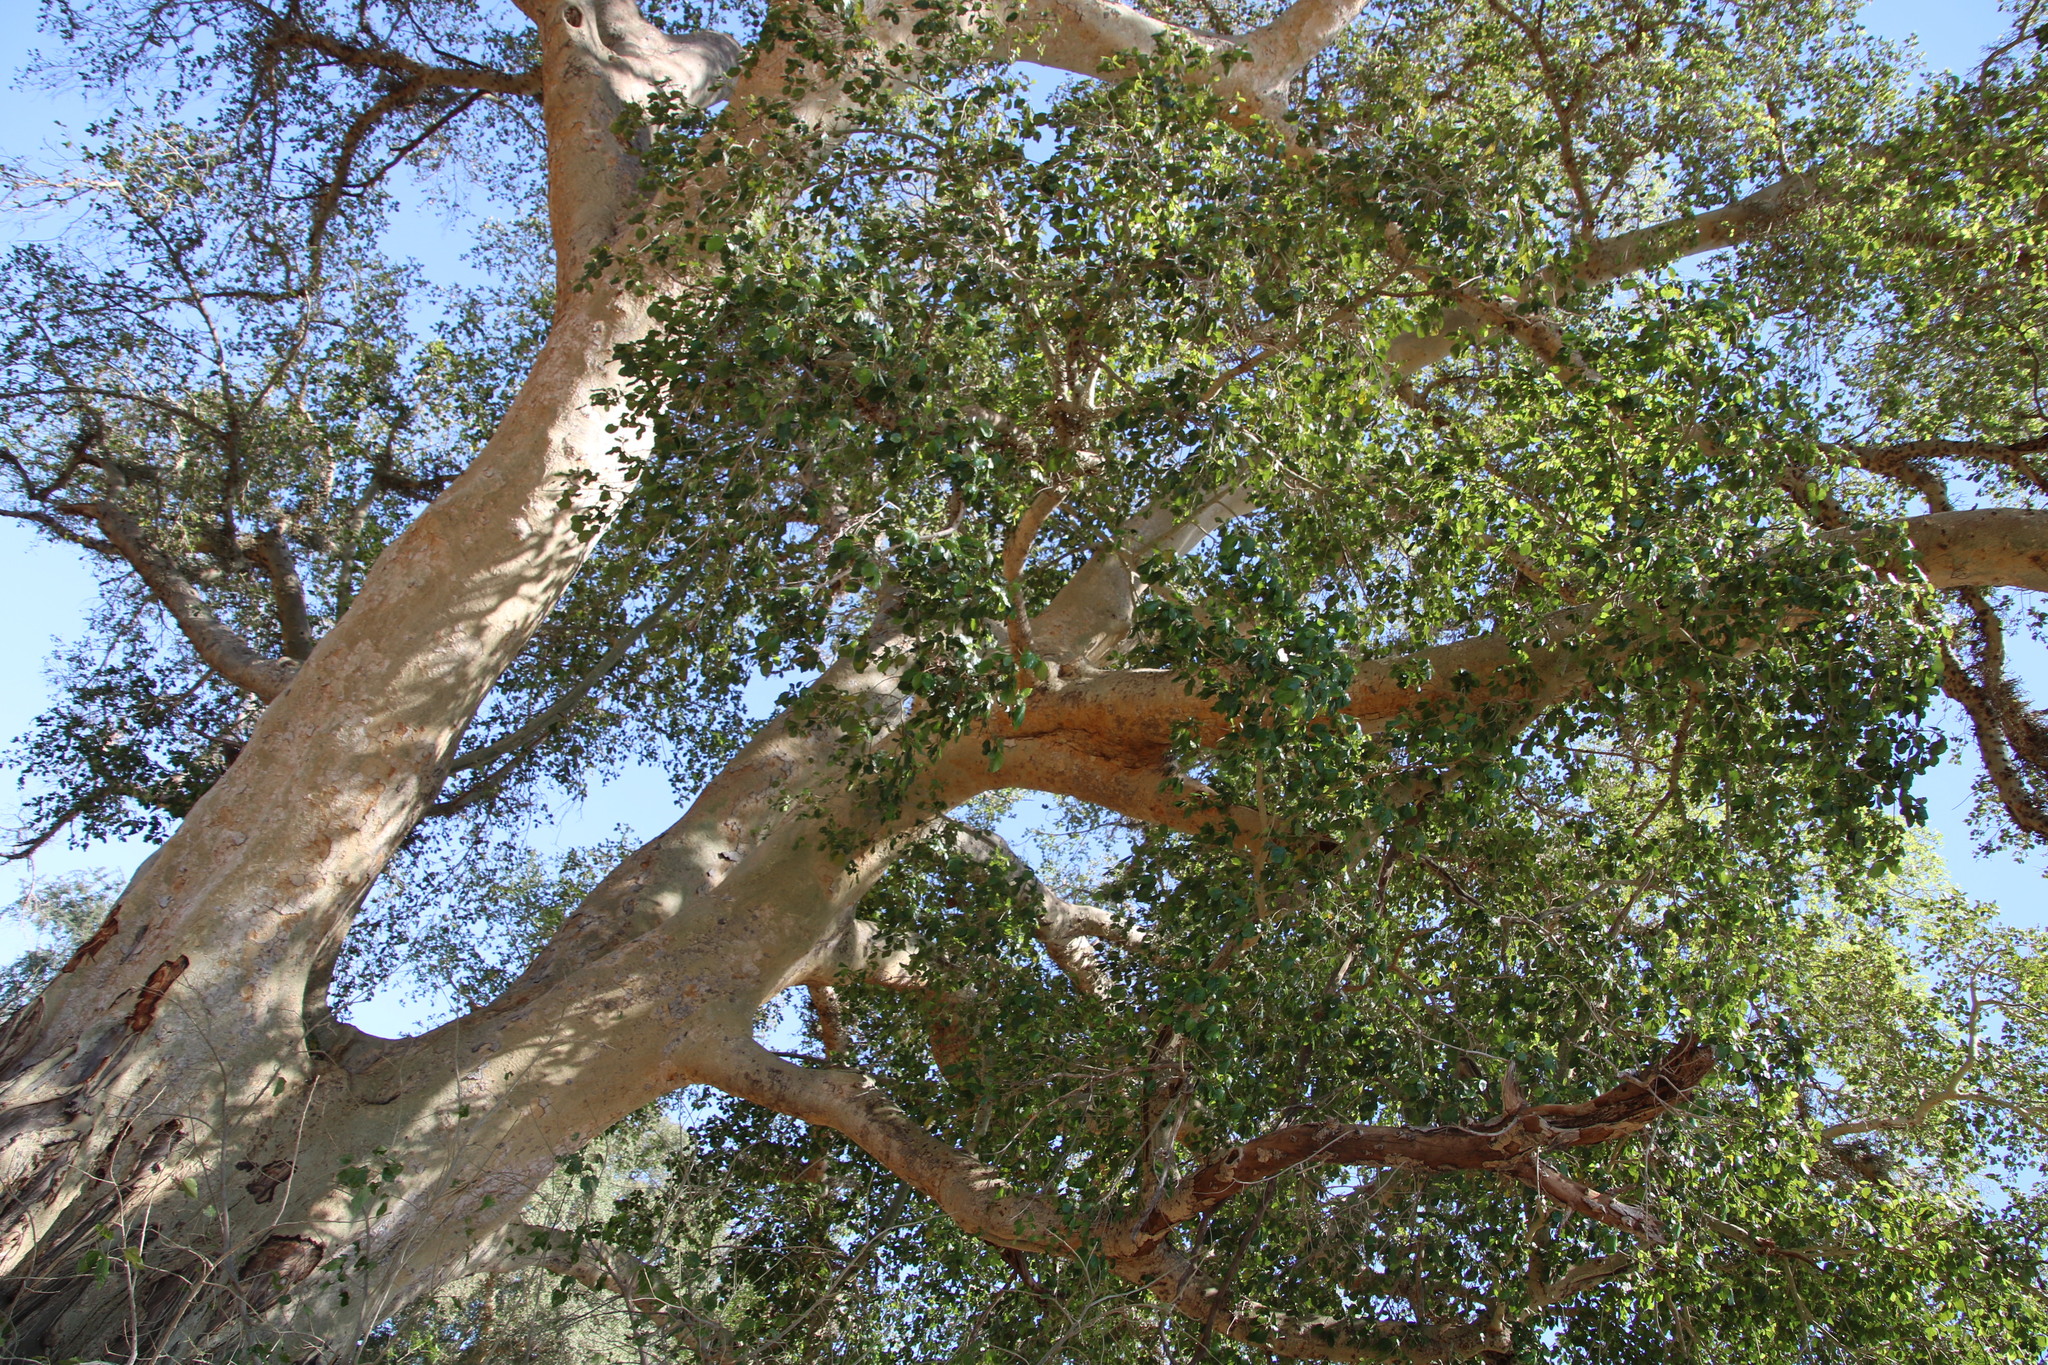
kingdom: Plantae
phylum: Tracheophyta
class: Magnoliopsida
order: Rosales
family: Moraceae
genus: Ficus
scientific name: Ficus sycomorus
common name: Sycomore
